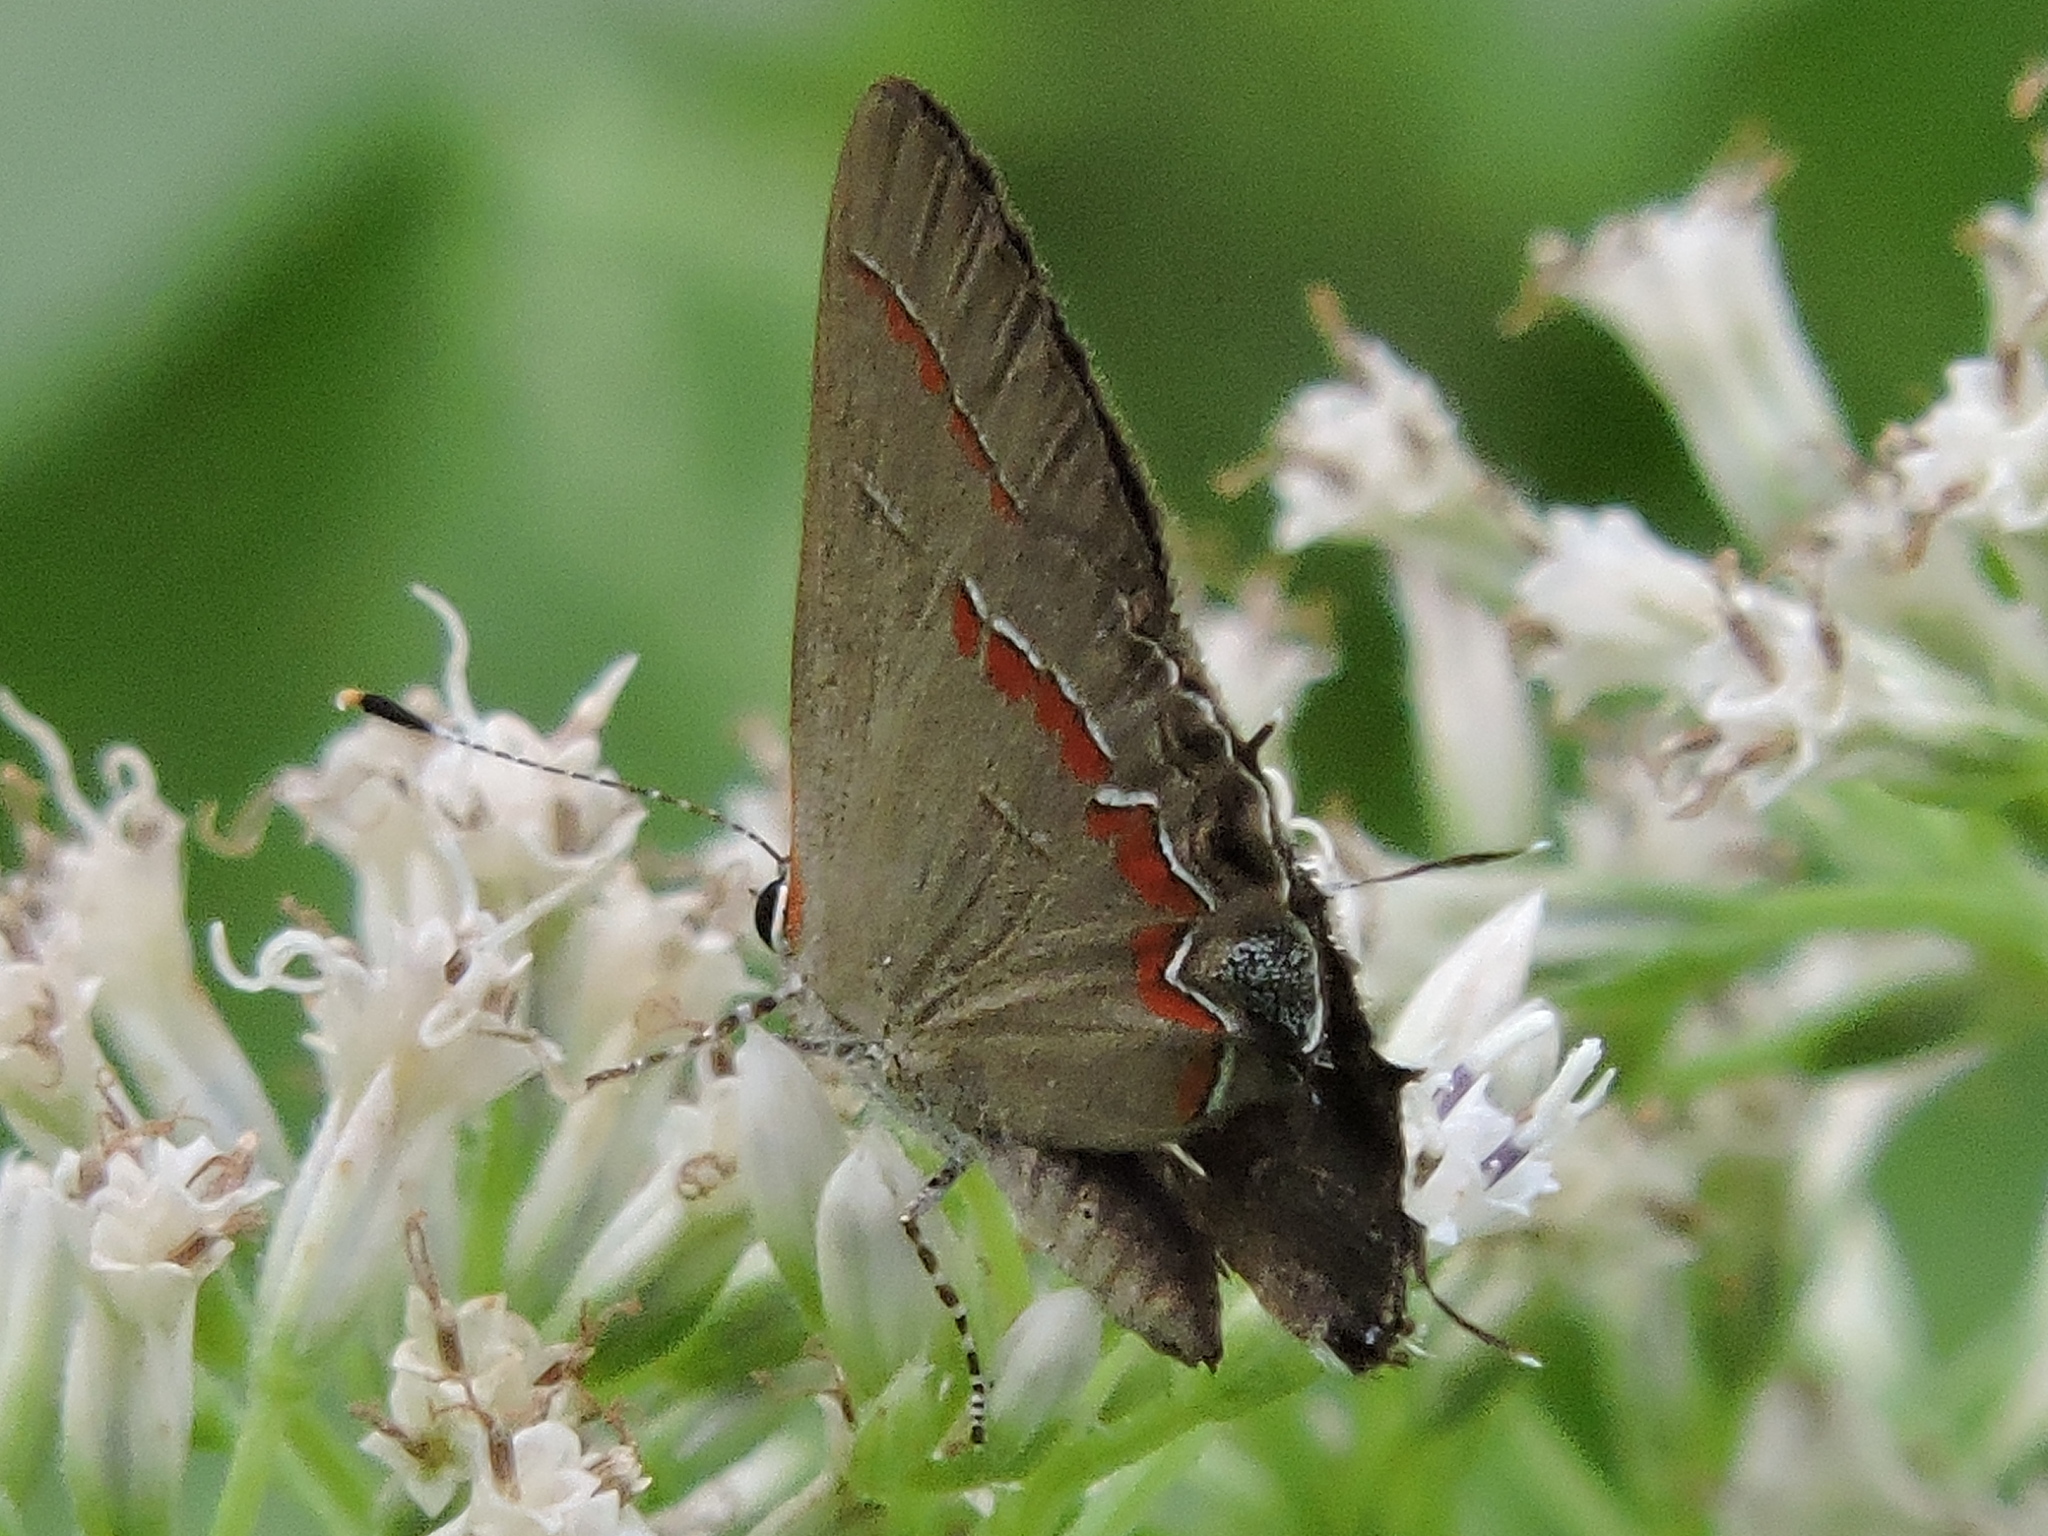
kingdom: Animalia
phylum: Arthropoda
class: Insecta
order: Lepidoptera
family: Lycaenidae
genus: Calycopis
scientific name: Calycopis cecrops
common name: Red-banded hairstreak
